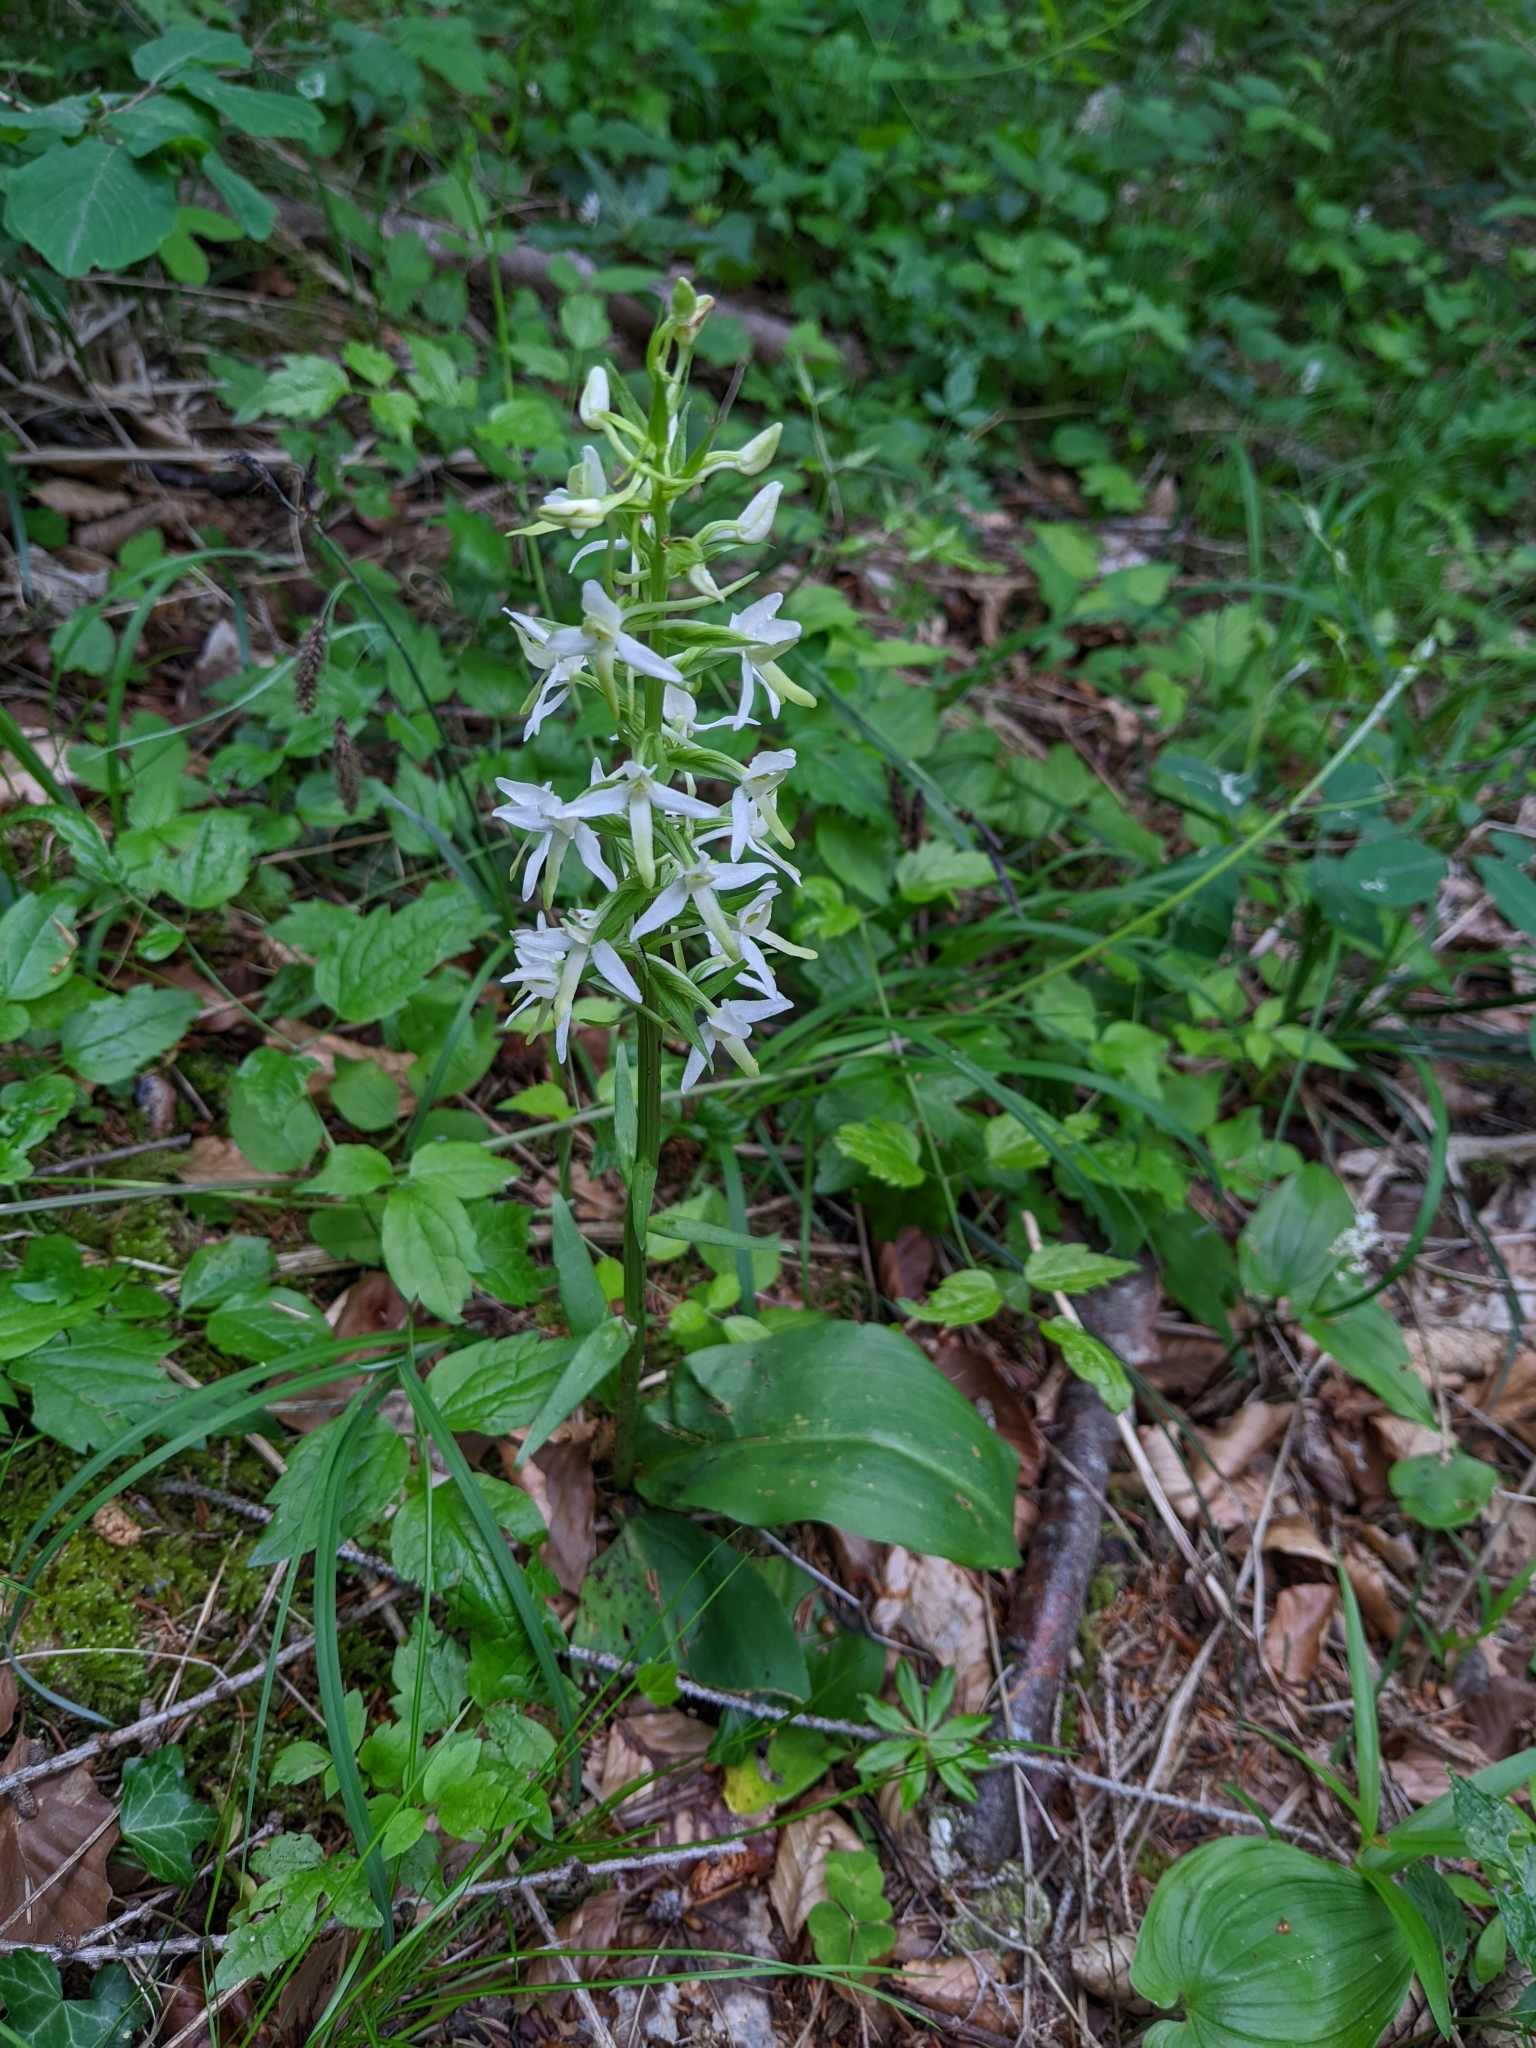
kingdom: Plantae
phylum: Tracheophyta
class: Liliopsida
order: Asparagales
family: Orchidaceae
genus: Platanthera
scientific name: Platanthera bifolia
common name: Lesser butterfly-orchid
